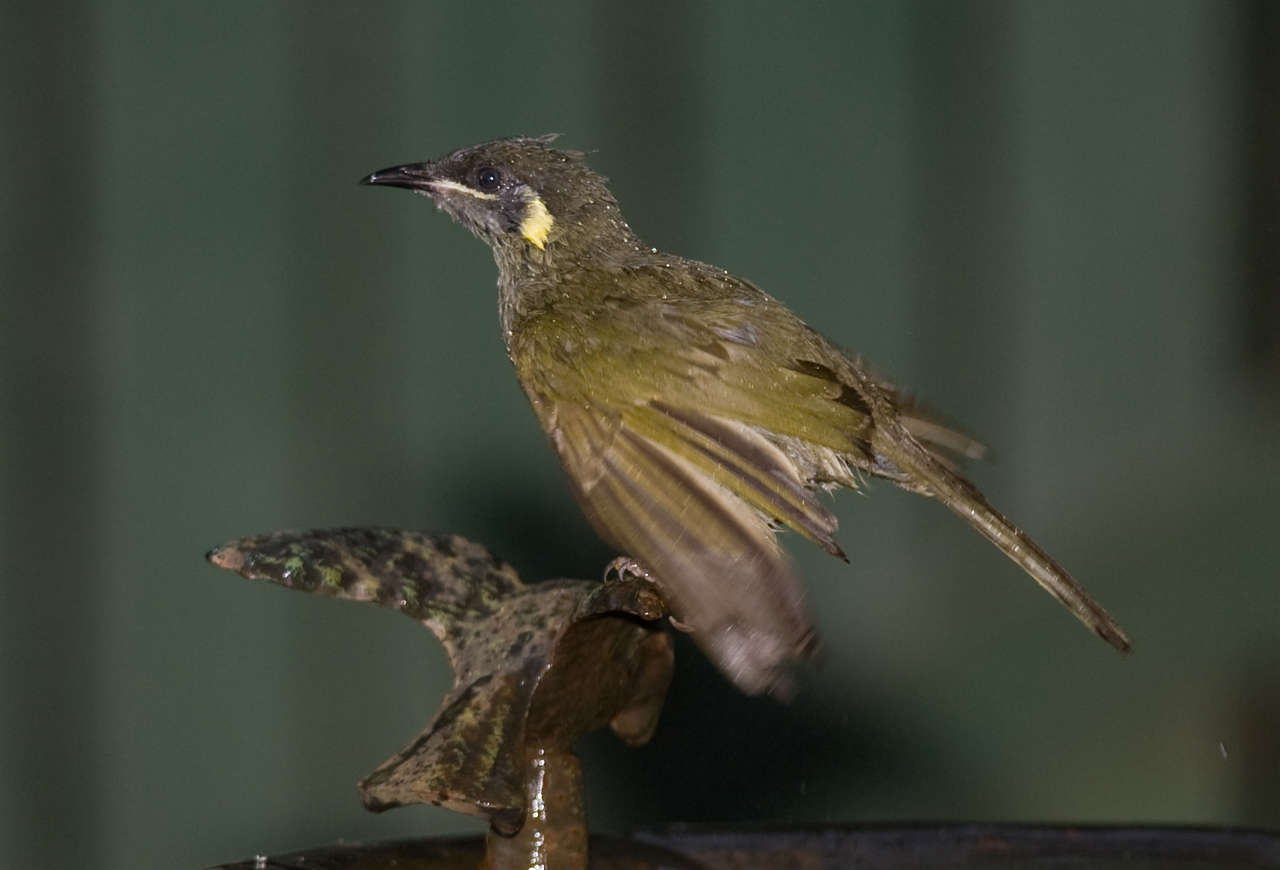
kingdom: Animalia
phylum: Chordata
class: Aves
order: Passeriformes
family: Meliphagidae
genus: Meliphaga
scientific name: Meliphaga lewinii
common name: Lewin's honeyeater
